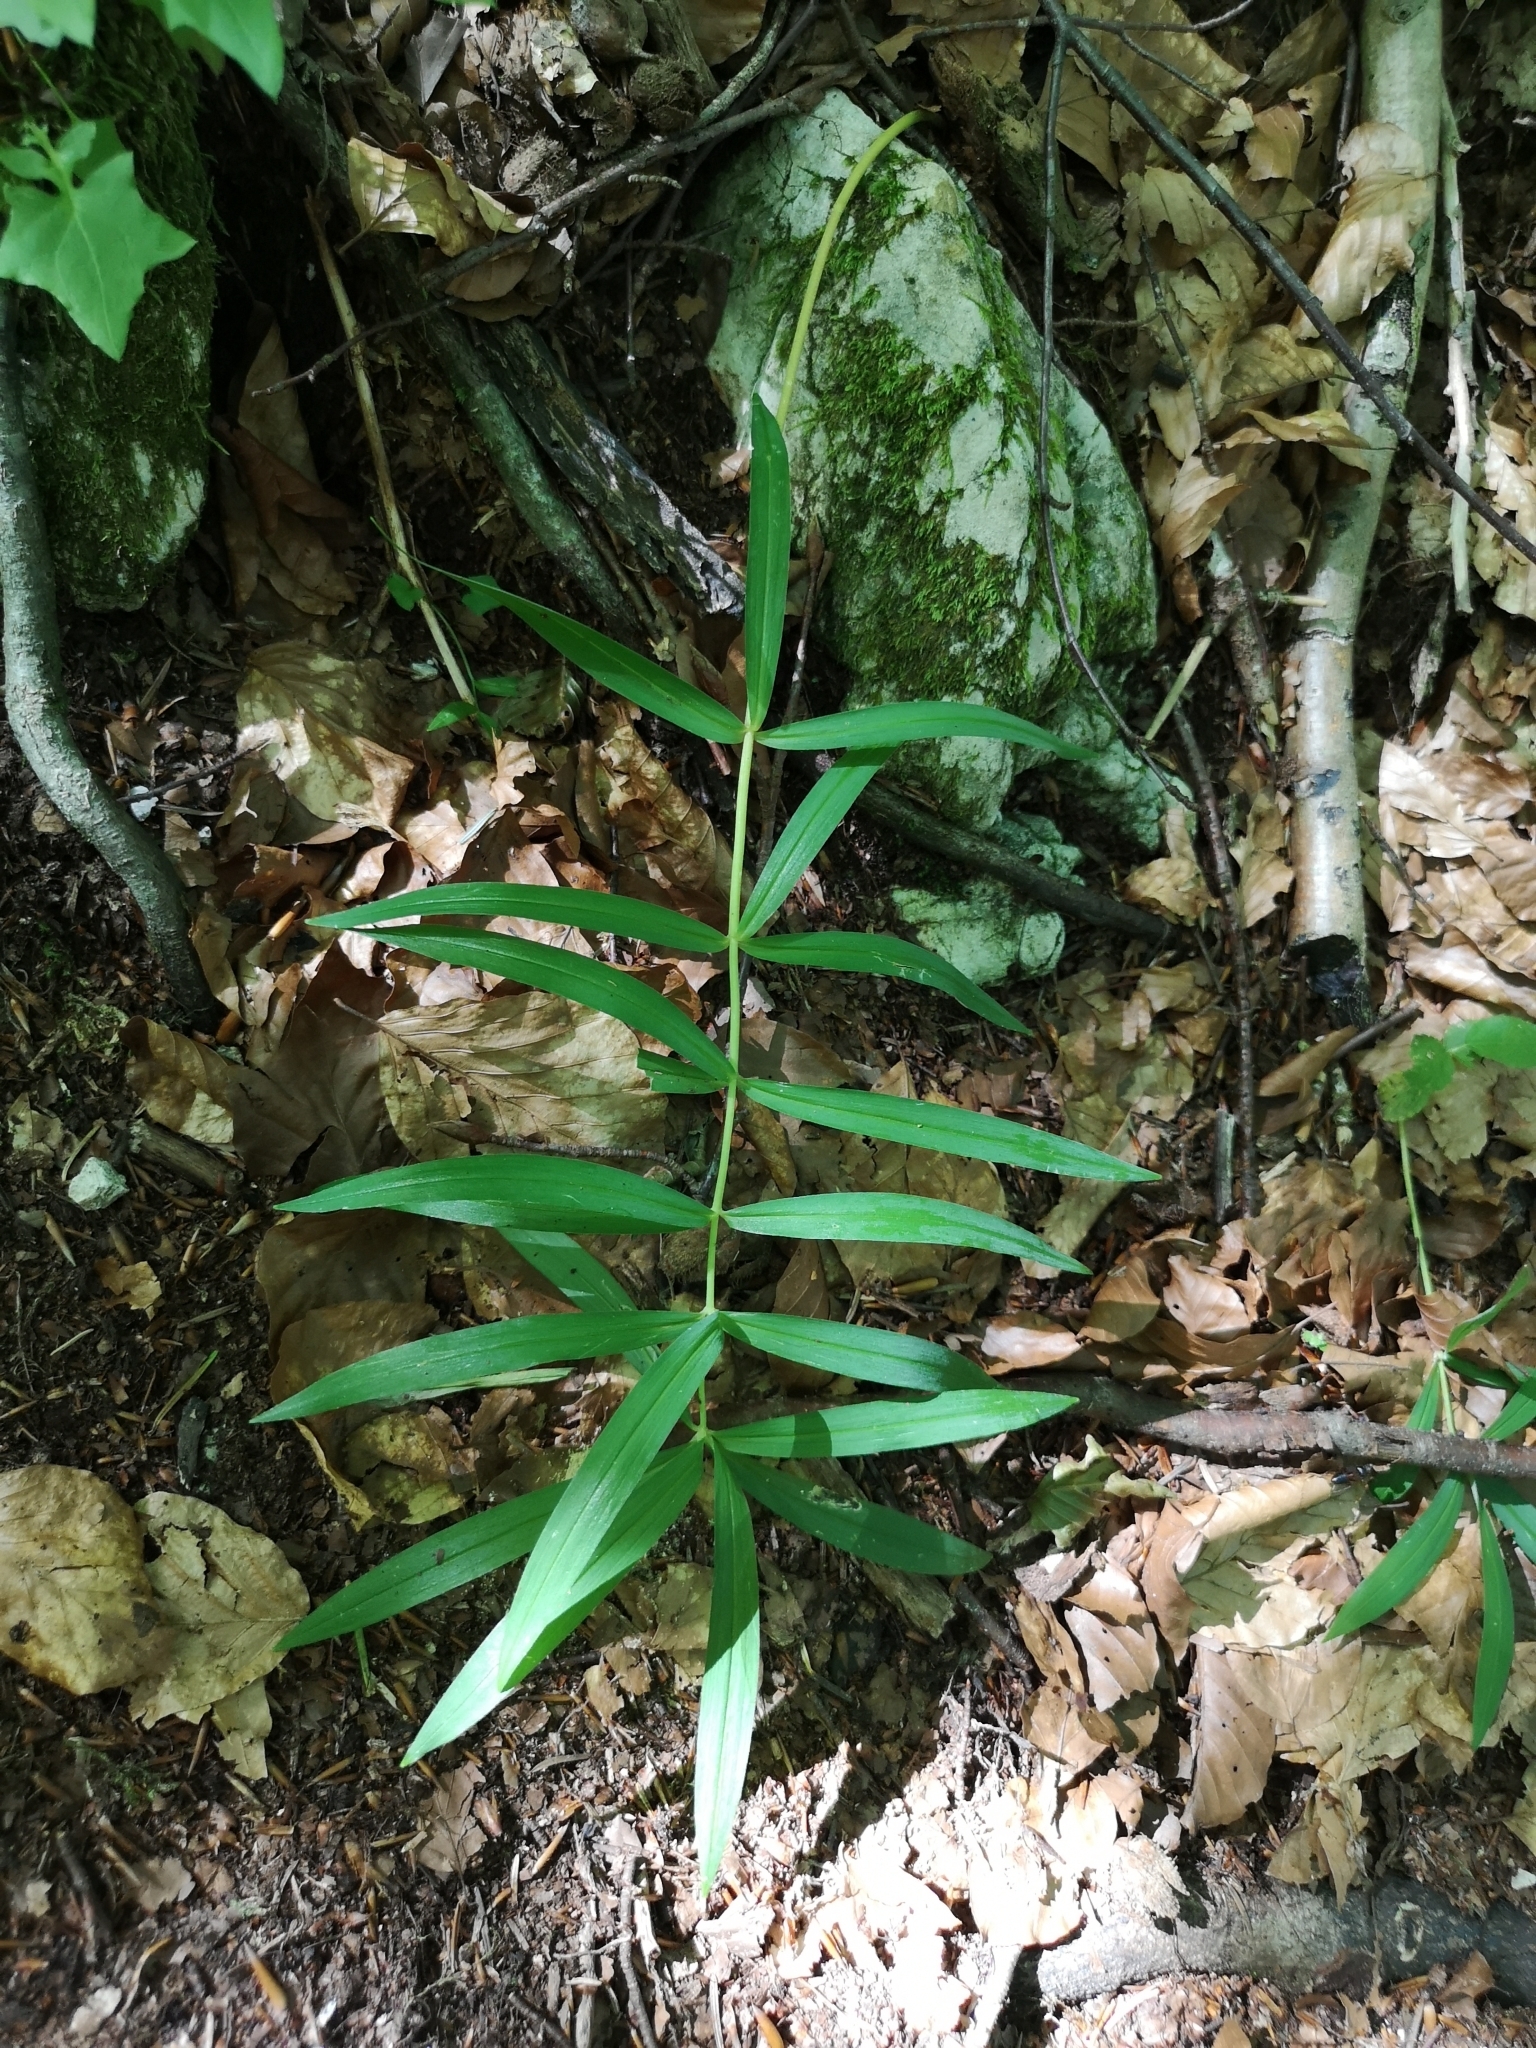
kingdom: Plantae
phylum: Tracheophyta
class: Liliopsida
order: Asparagales
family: Asparagaceae
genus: Polygonatum
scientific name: Polygonatum verticillatum
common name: Whorled solomon's-seal
